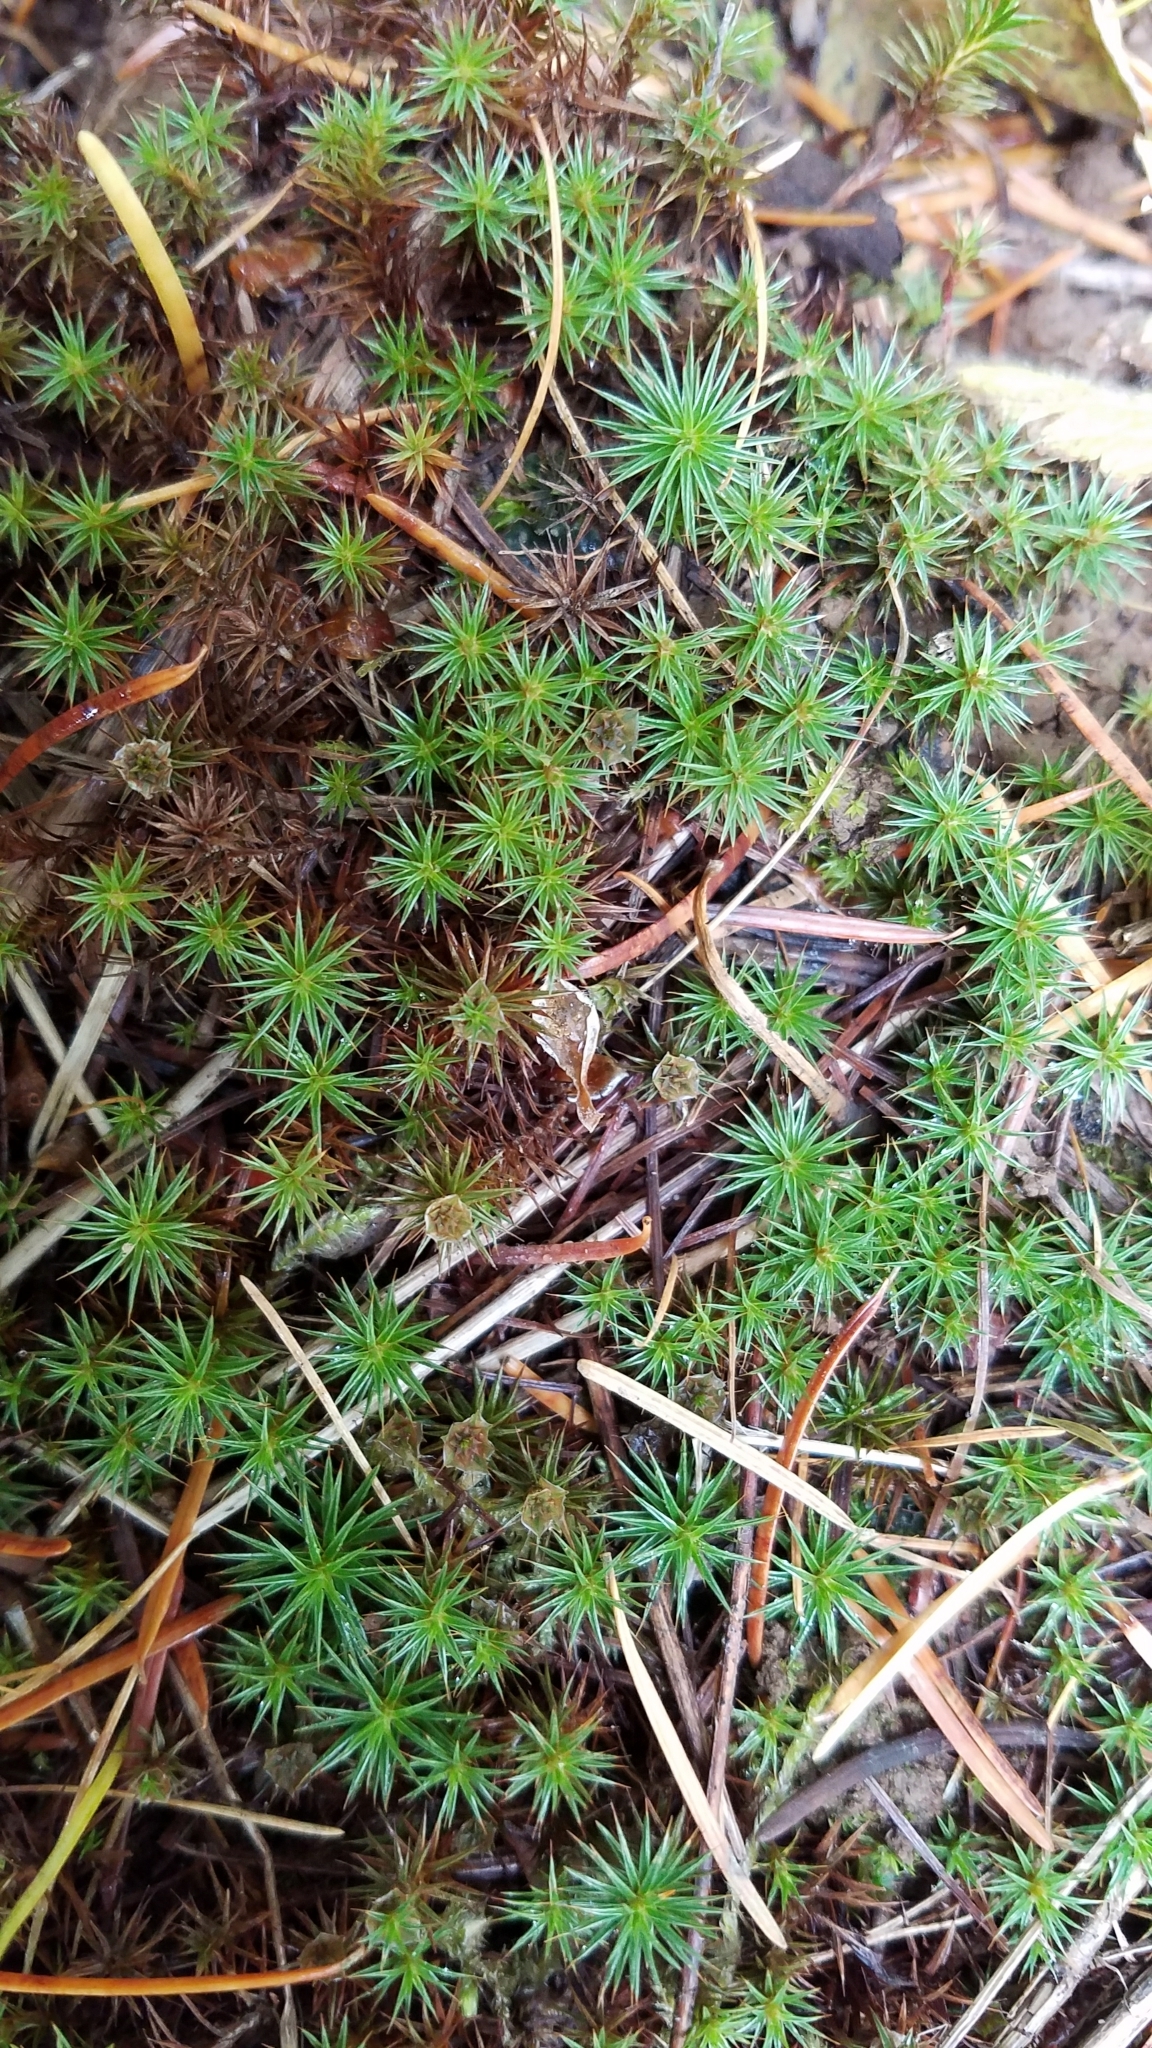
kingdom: Plantae
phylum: Bryophyta
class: Polytrichopsida
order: Polytrichales
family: Polytrichaceae
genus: Polytrichum
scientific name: Polytrichum juniperinum
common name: Juniper haircap moss
